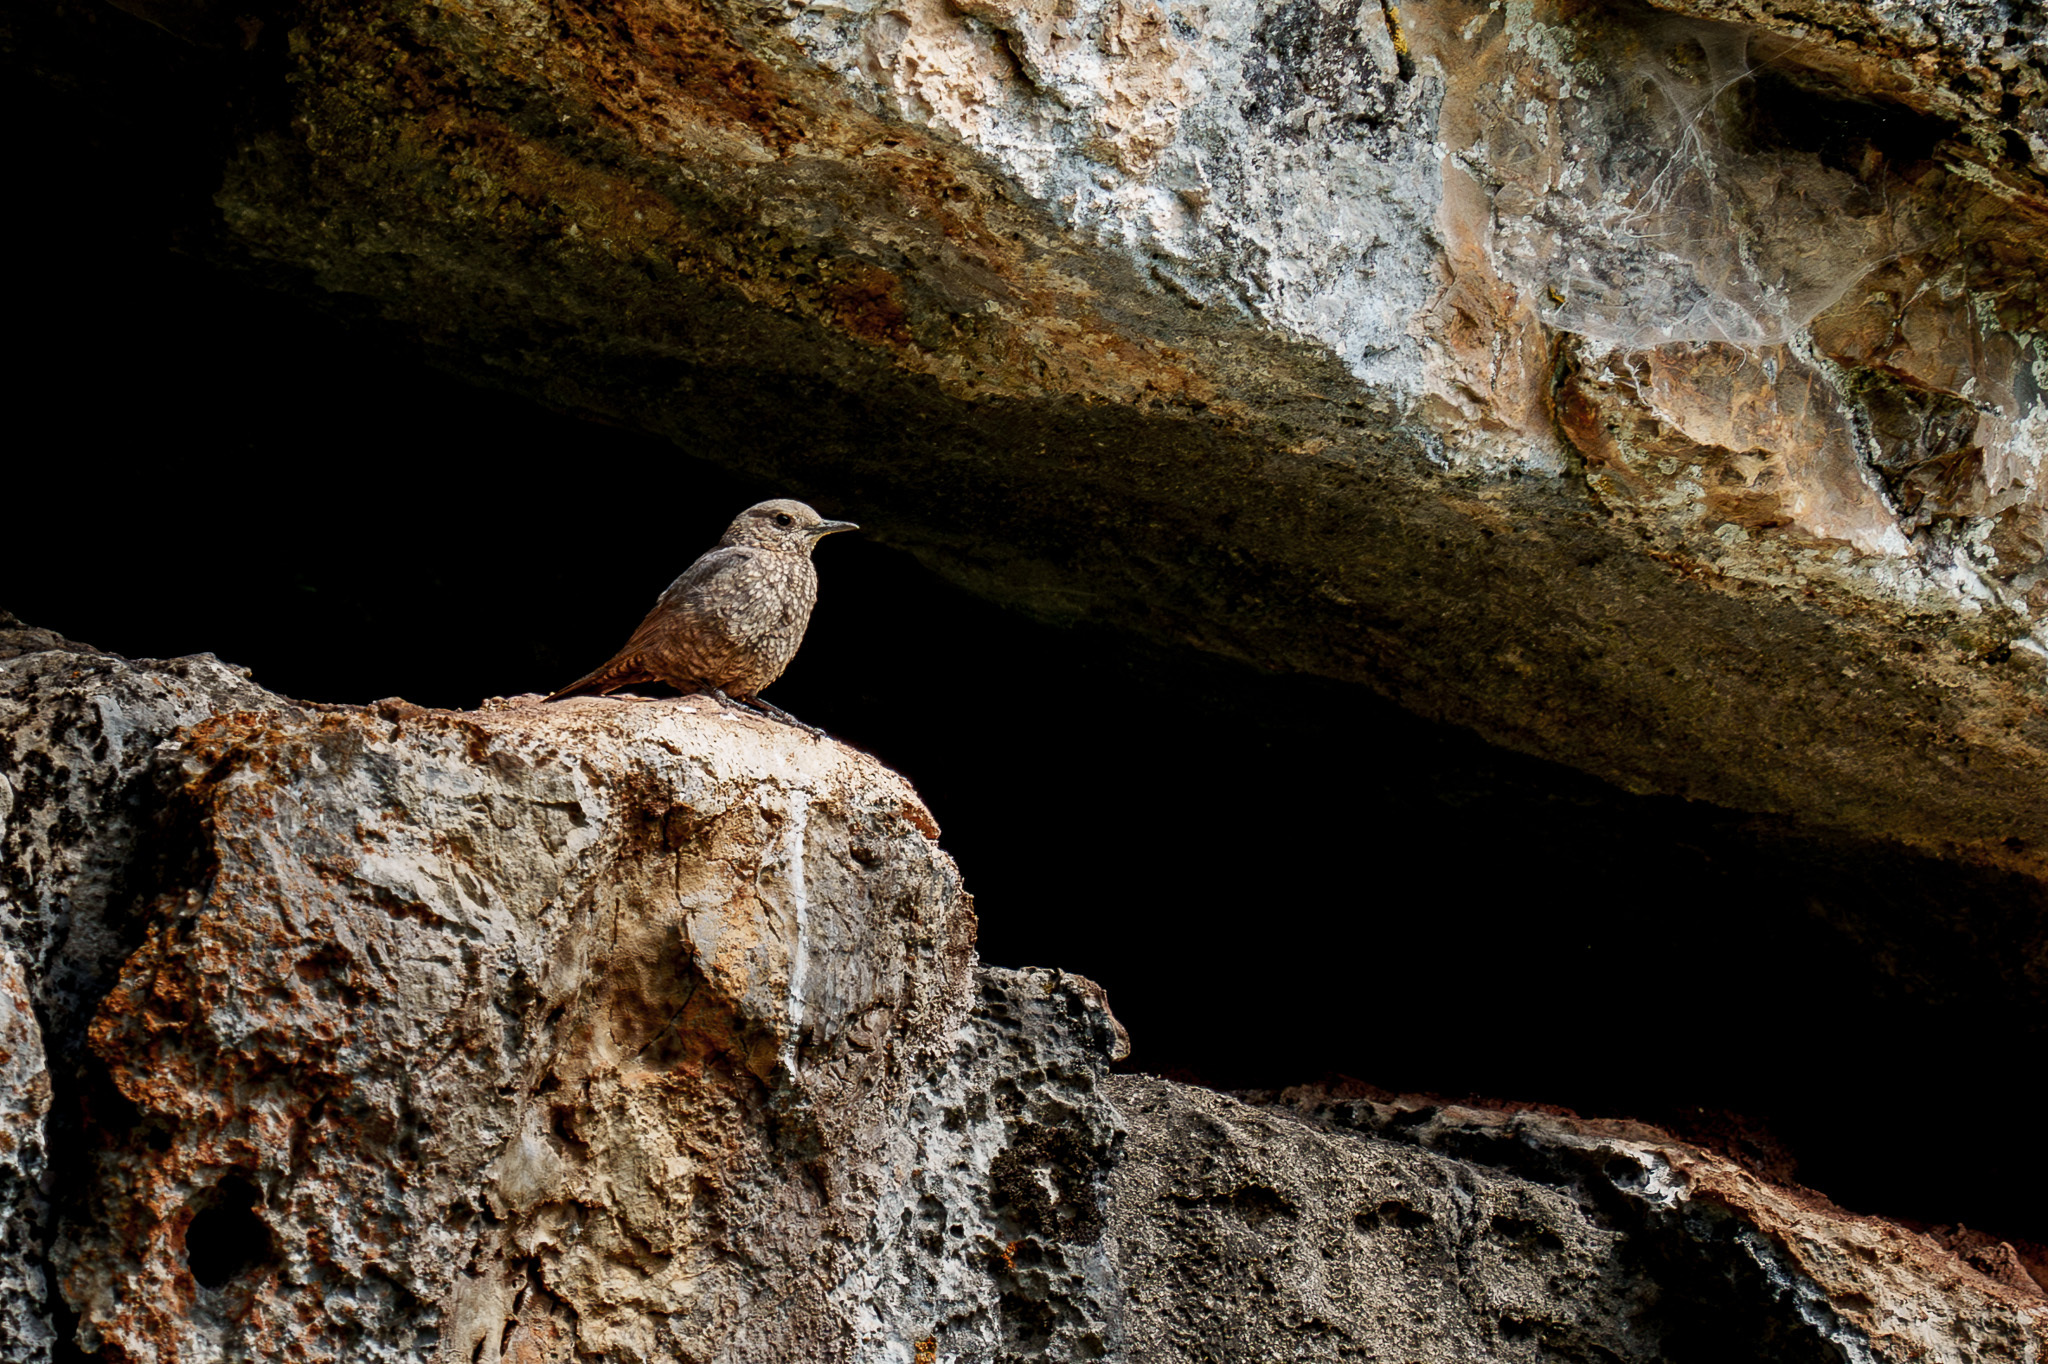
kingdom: Animalia
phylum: Chordata
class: Aves
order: Passeriformes
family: Muscicapidae
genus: Monticola
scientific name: Monticola solitarius
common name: Blue rock thrush
